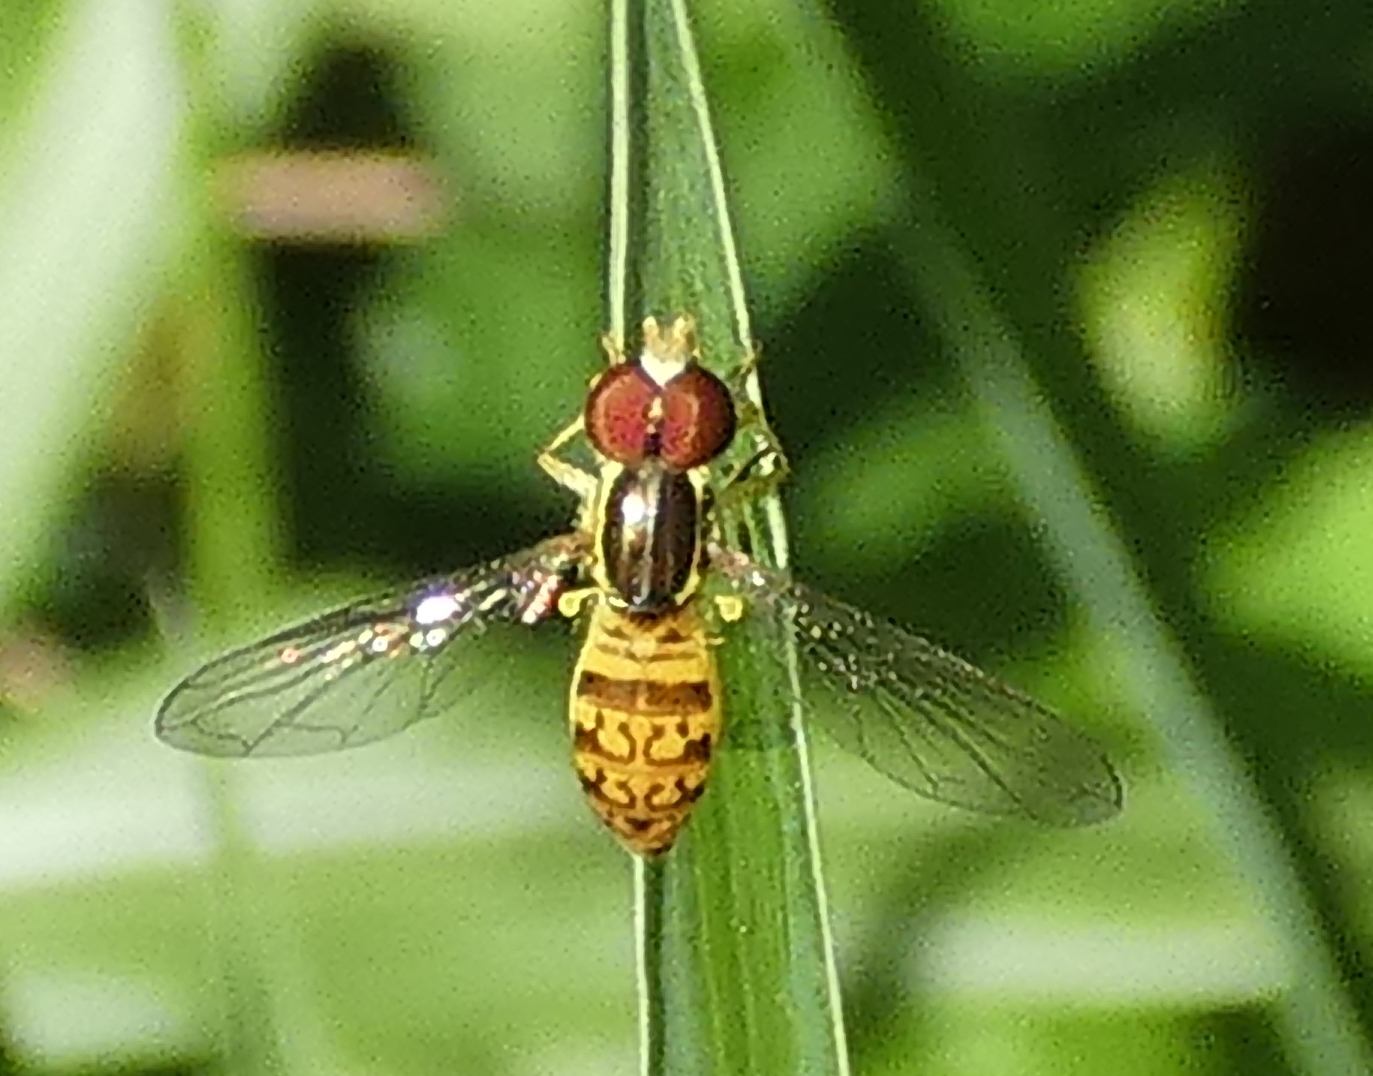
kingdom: Animalia
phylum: Arthropoda
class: Insecta
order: Diptera
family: Syrphidae
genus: Toxomerus
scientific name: Toxomerus pictus
